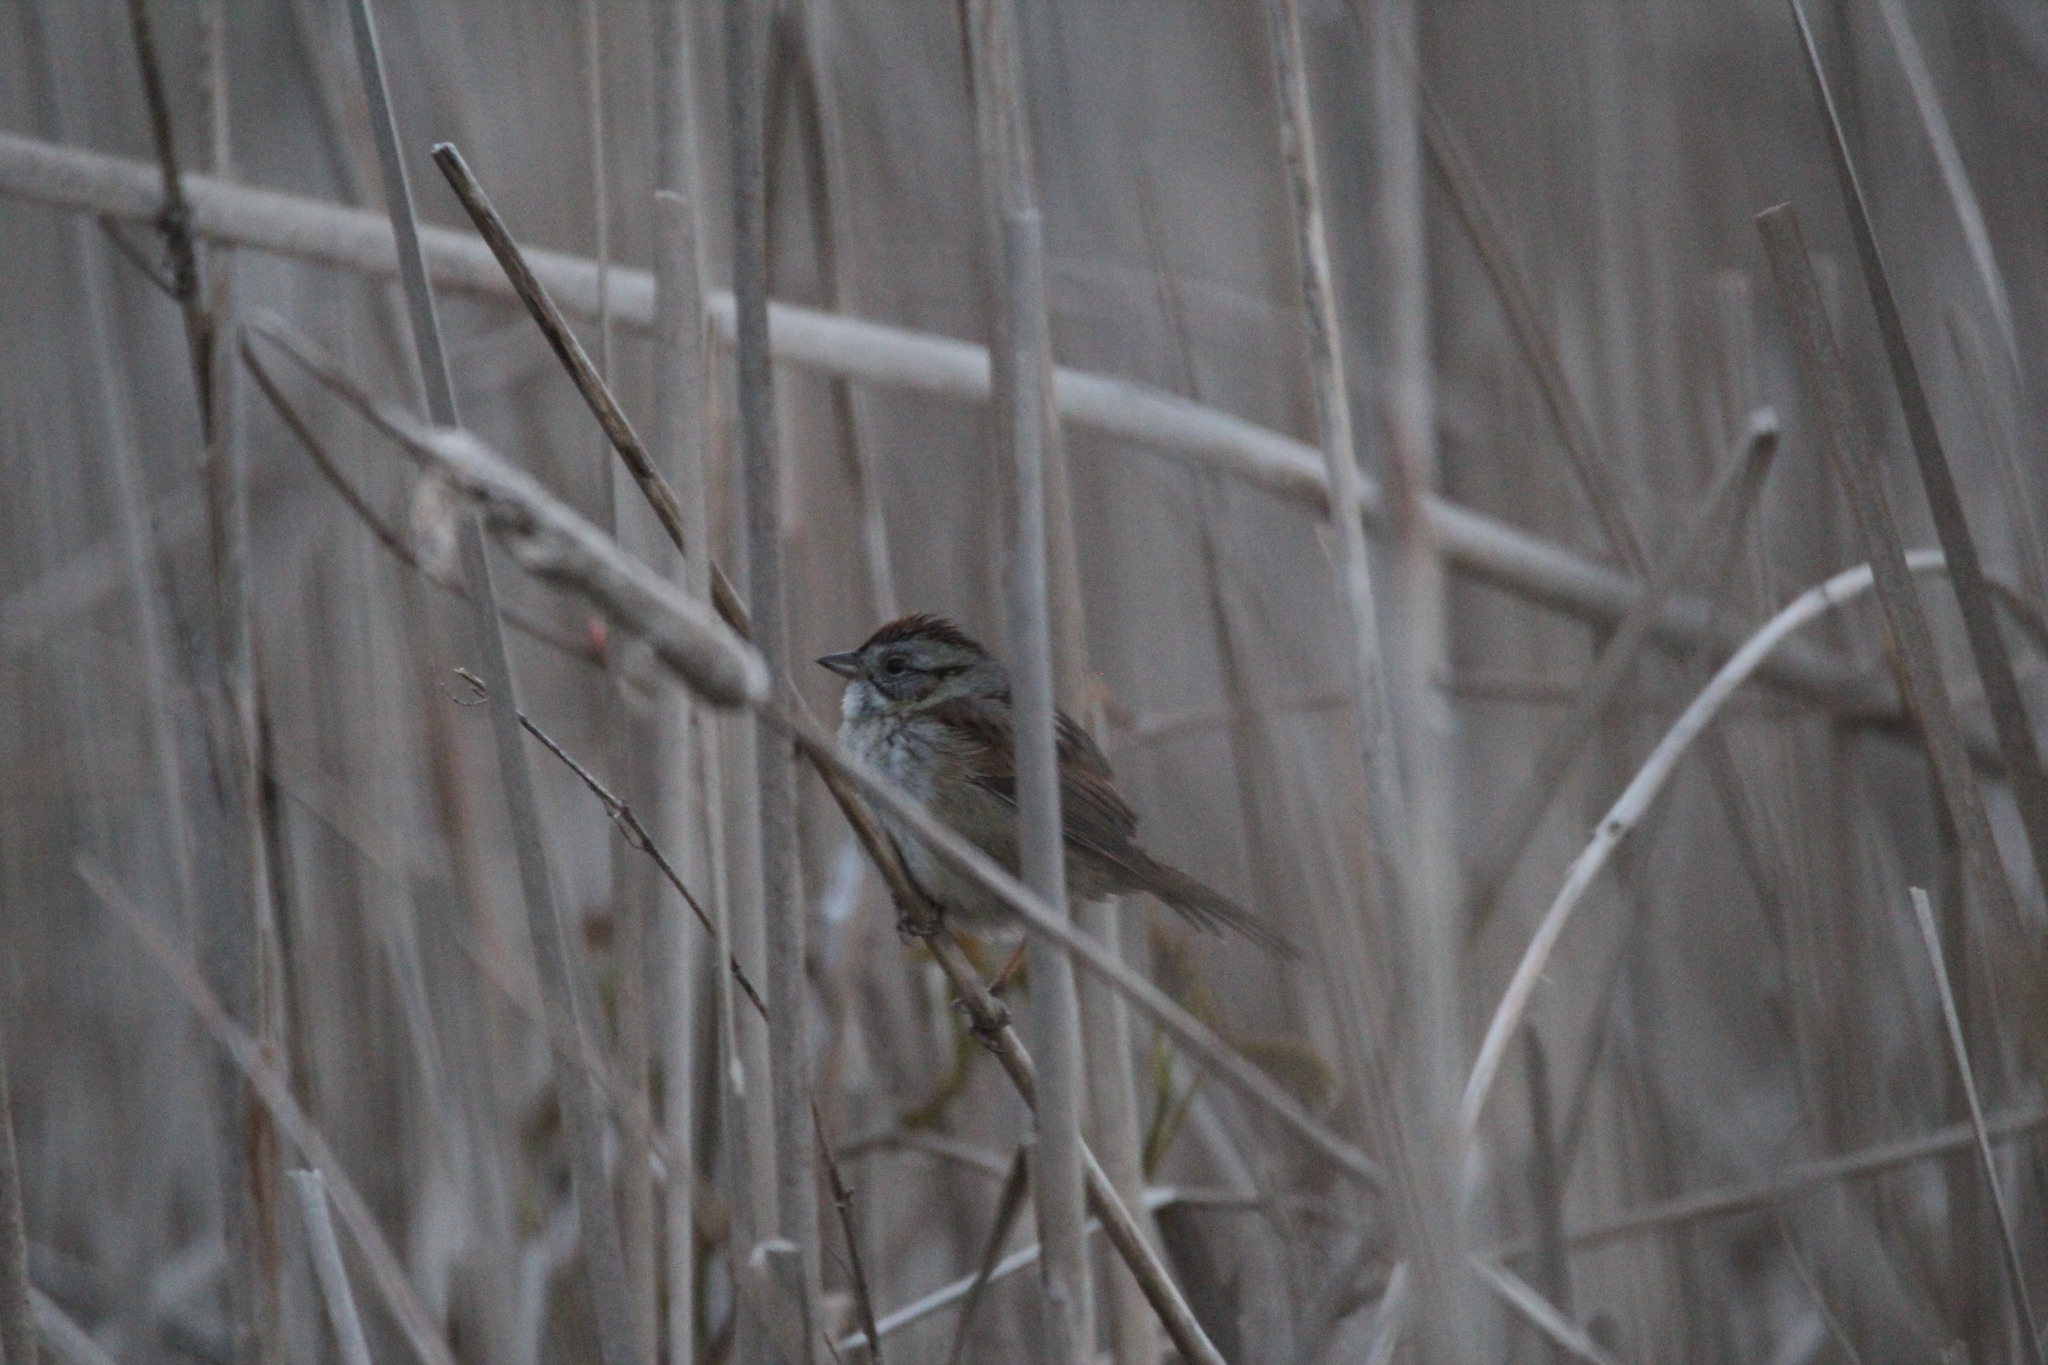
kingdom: Animalia
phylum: Chordata
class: Aves
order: Passeriformes
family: Passerellidae
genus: Melospiza
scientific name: Melospiza georgiana
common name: Swamp sparrow
